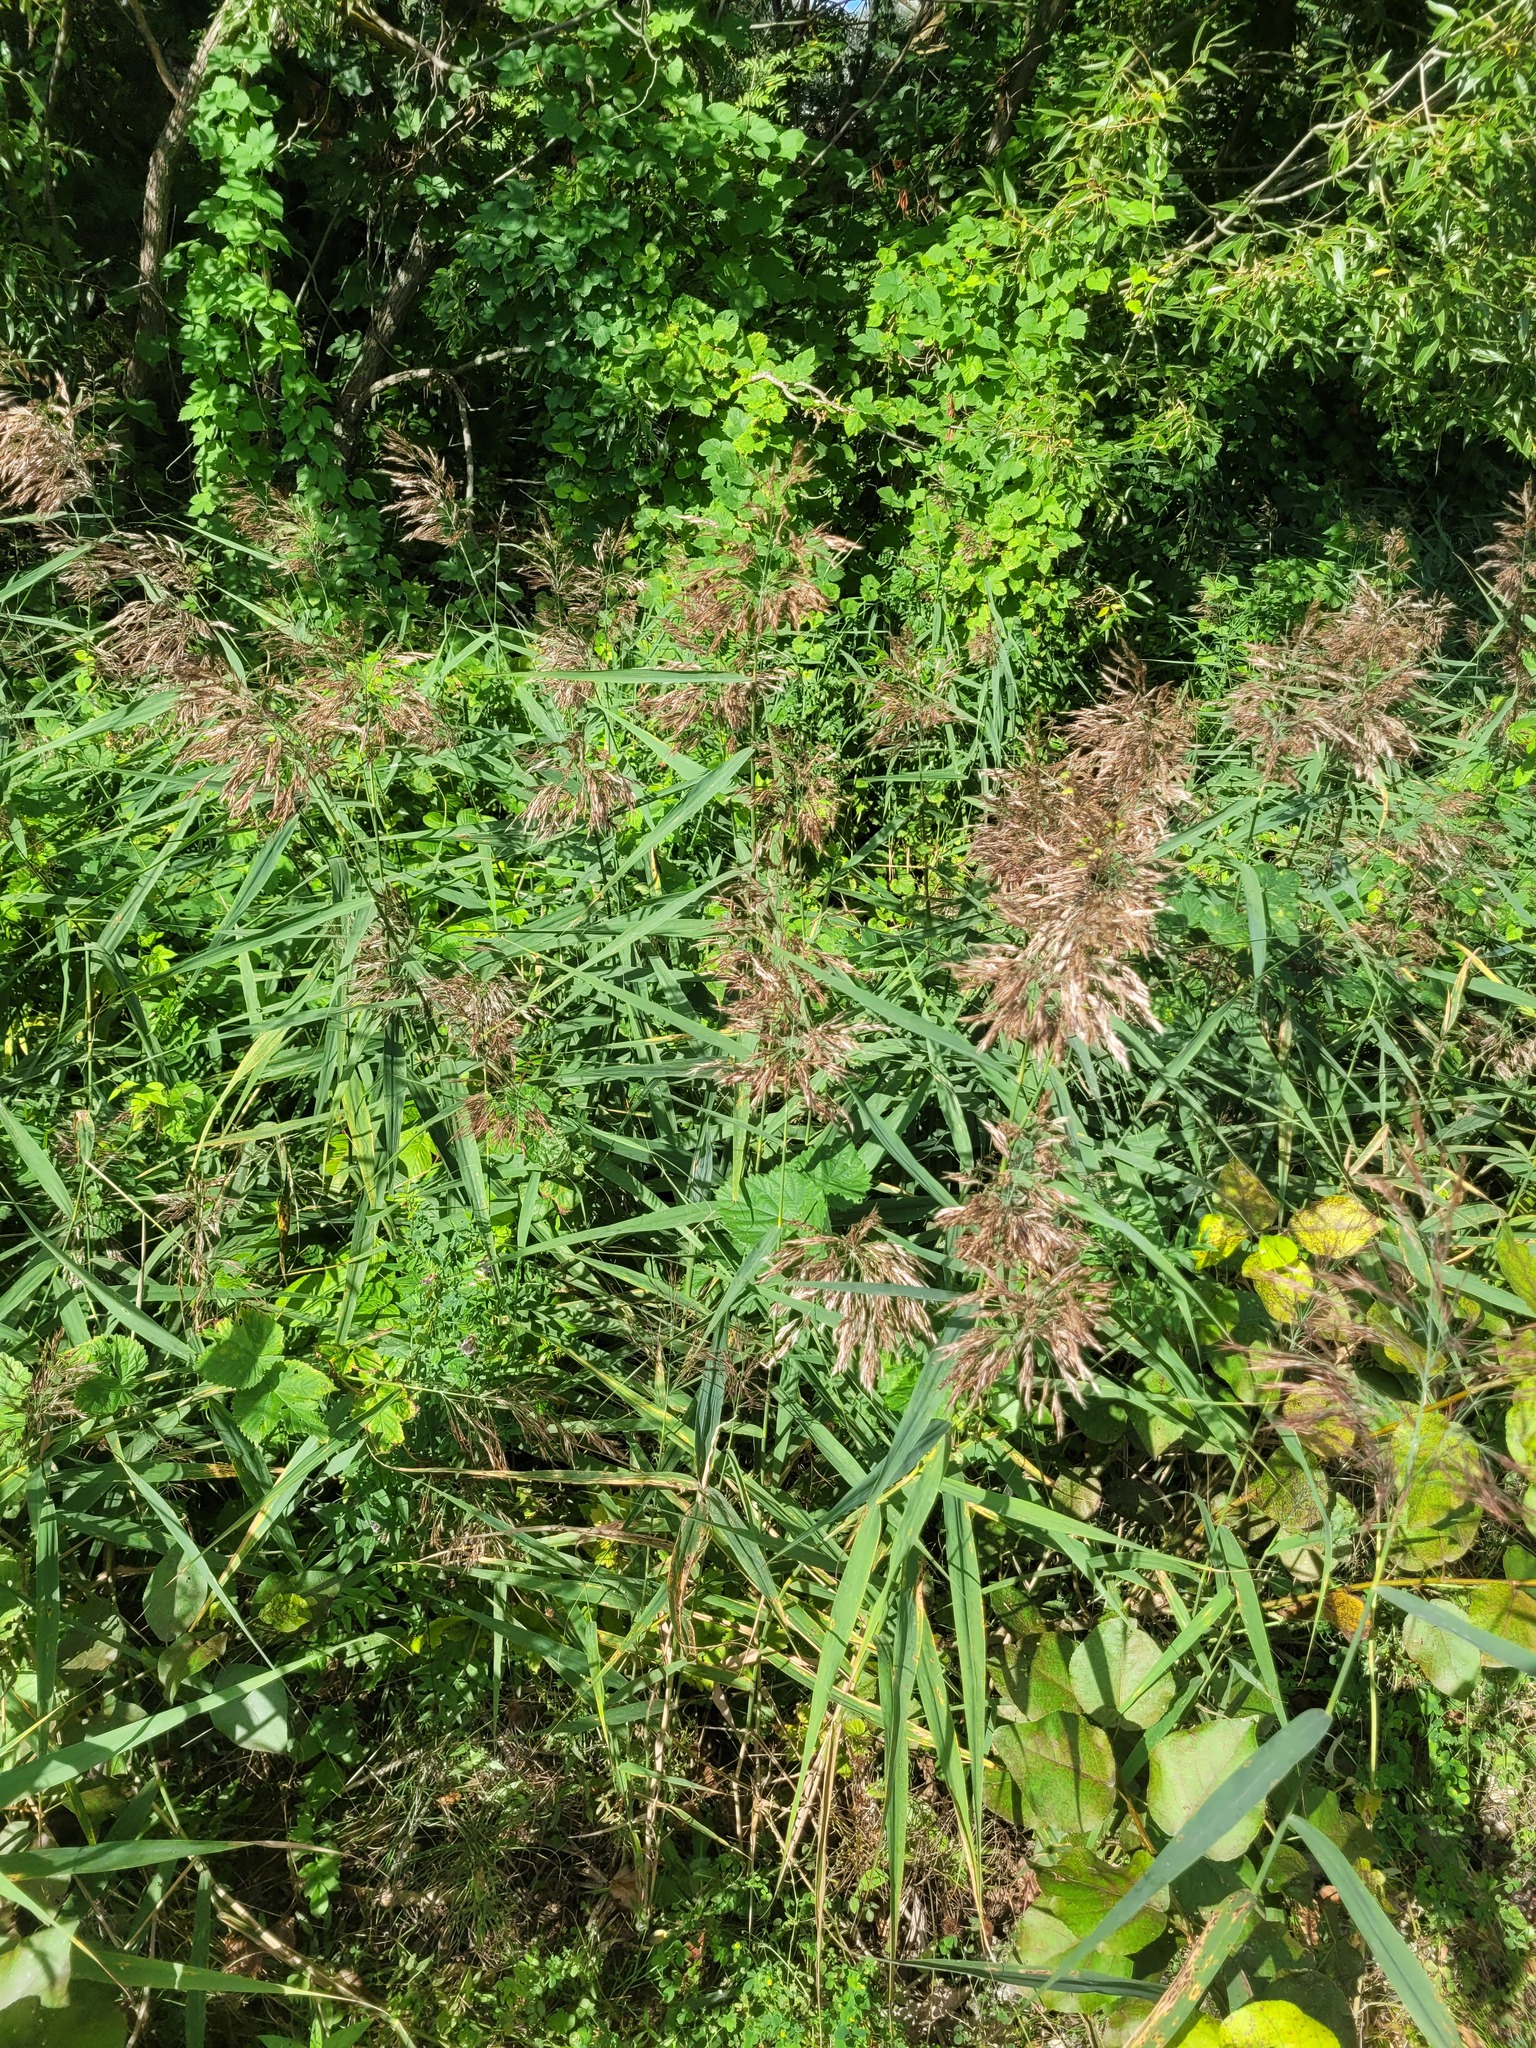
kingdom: Plantae
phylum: Tracheophyta
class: Liliopsida
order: Poales
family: Poaceae
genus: Phragmites
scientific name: Phragmites australis
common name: Common reed
